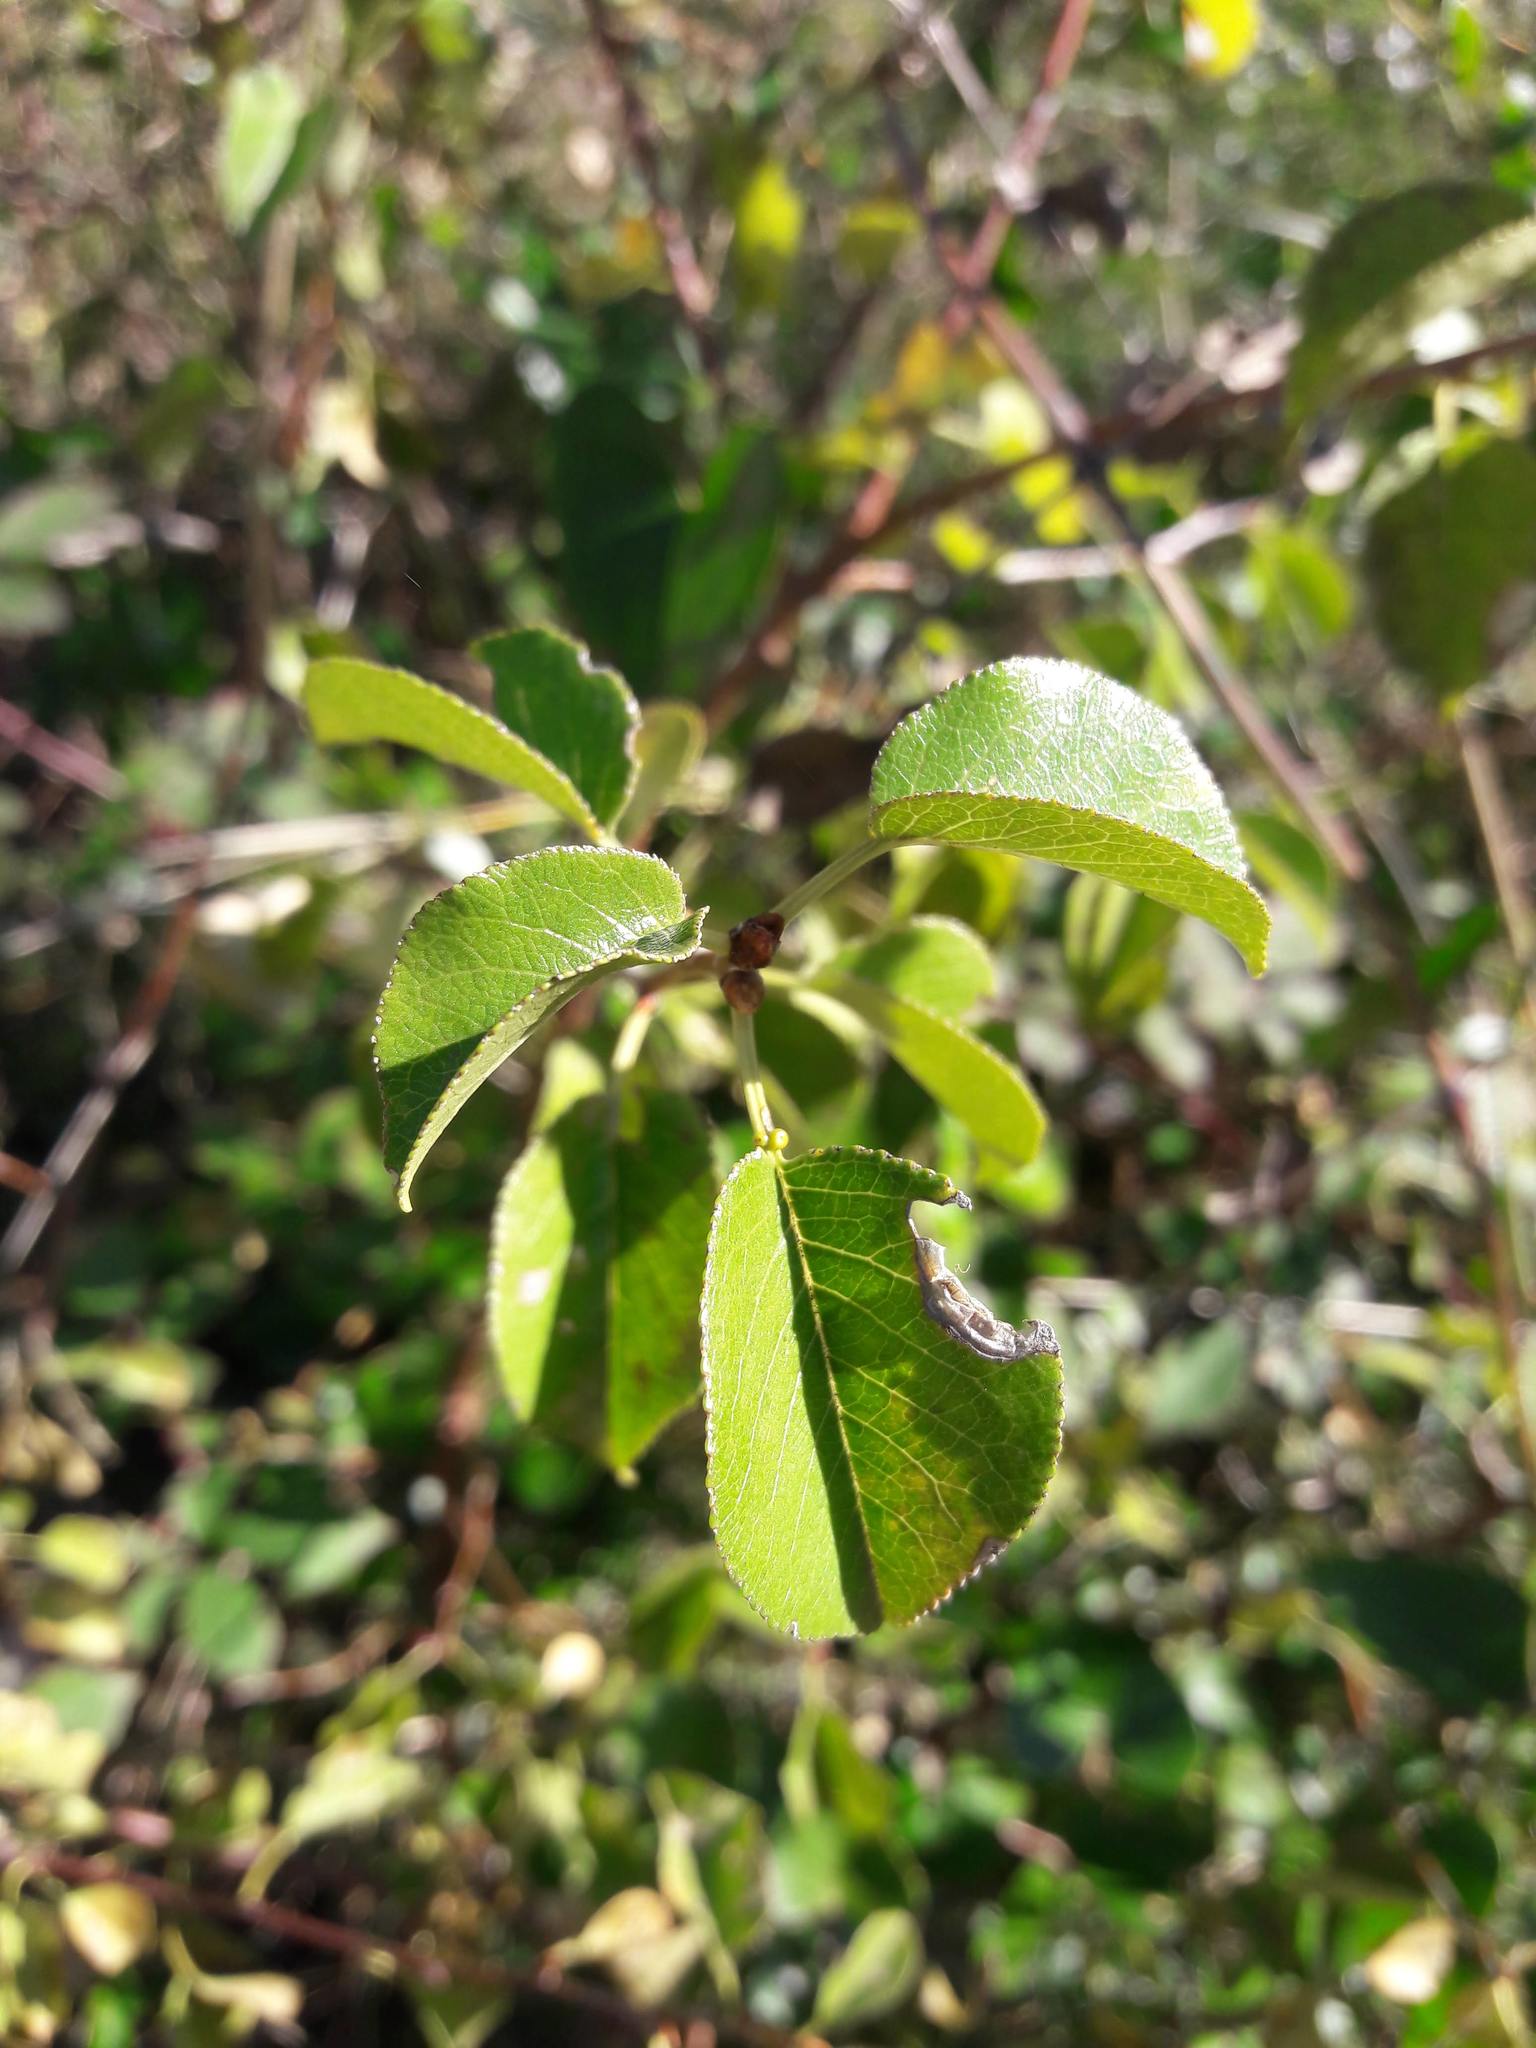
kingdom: Plantae
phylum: Tracheophyta
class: Magnoliopsida
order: Rosales
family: Rosaceae
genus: Prunus
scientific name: Prunus mahaleb
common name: Mahaleb cherry
